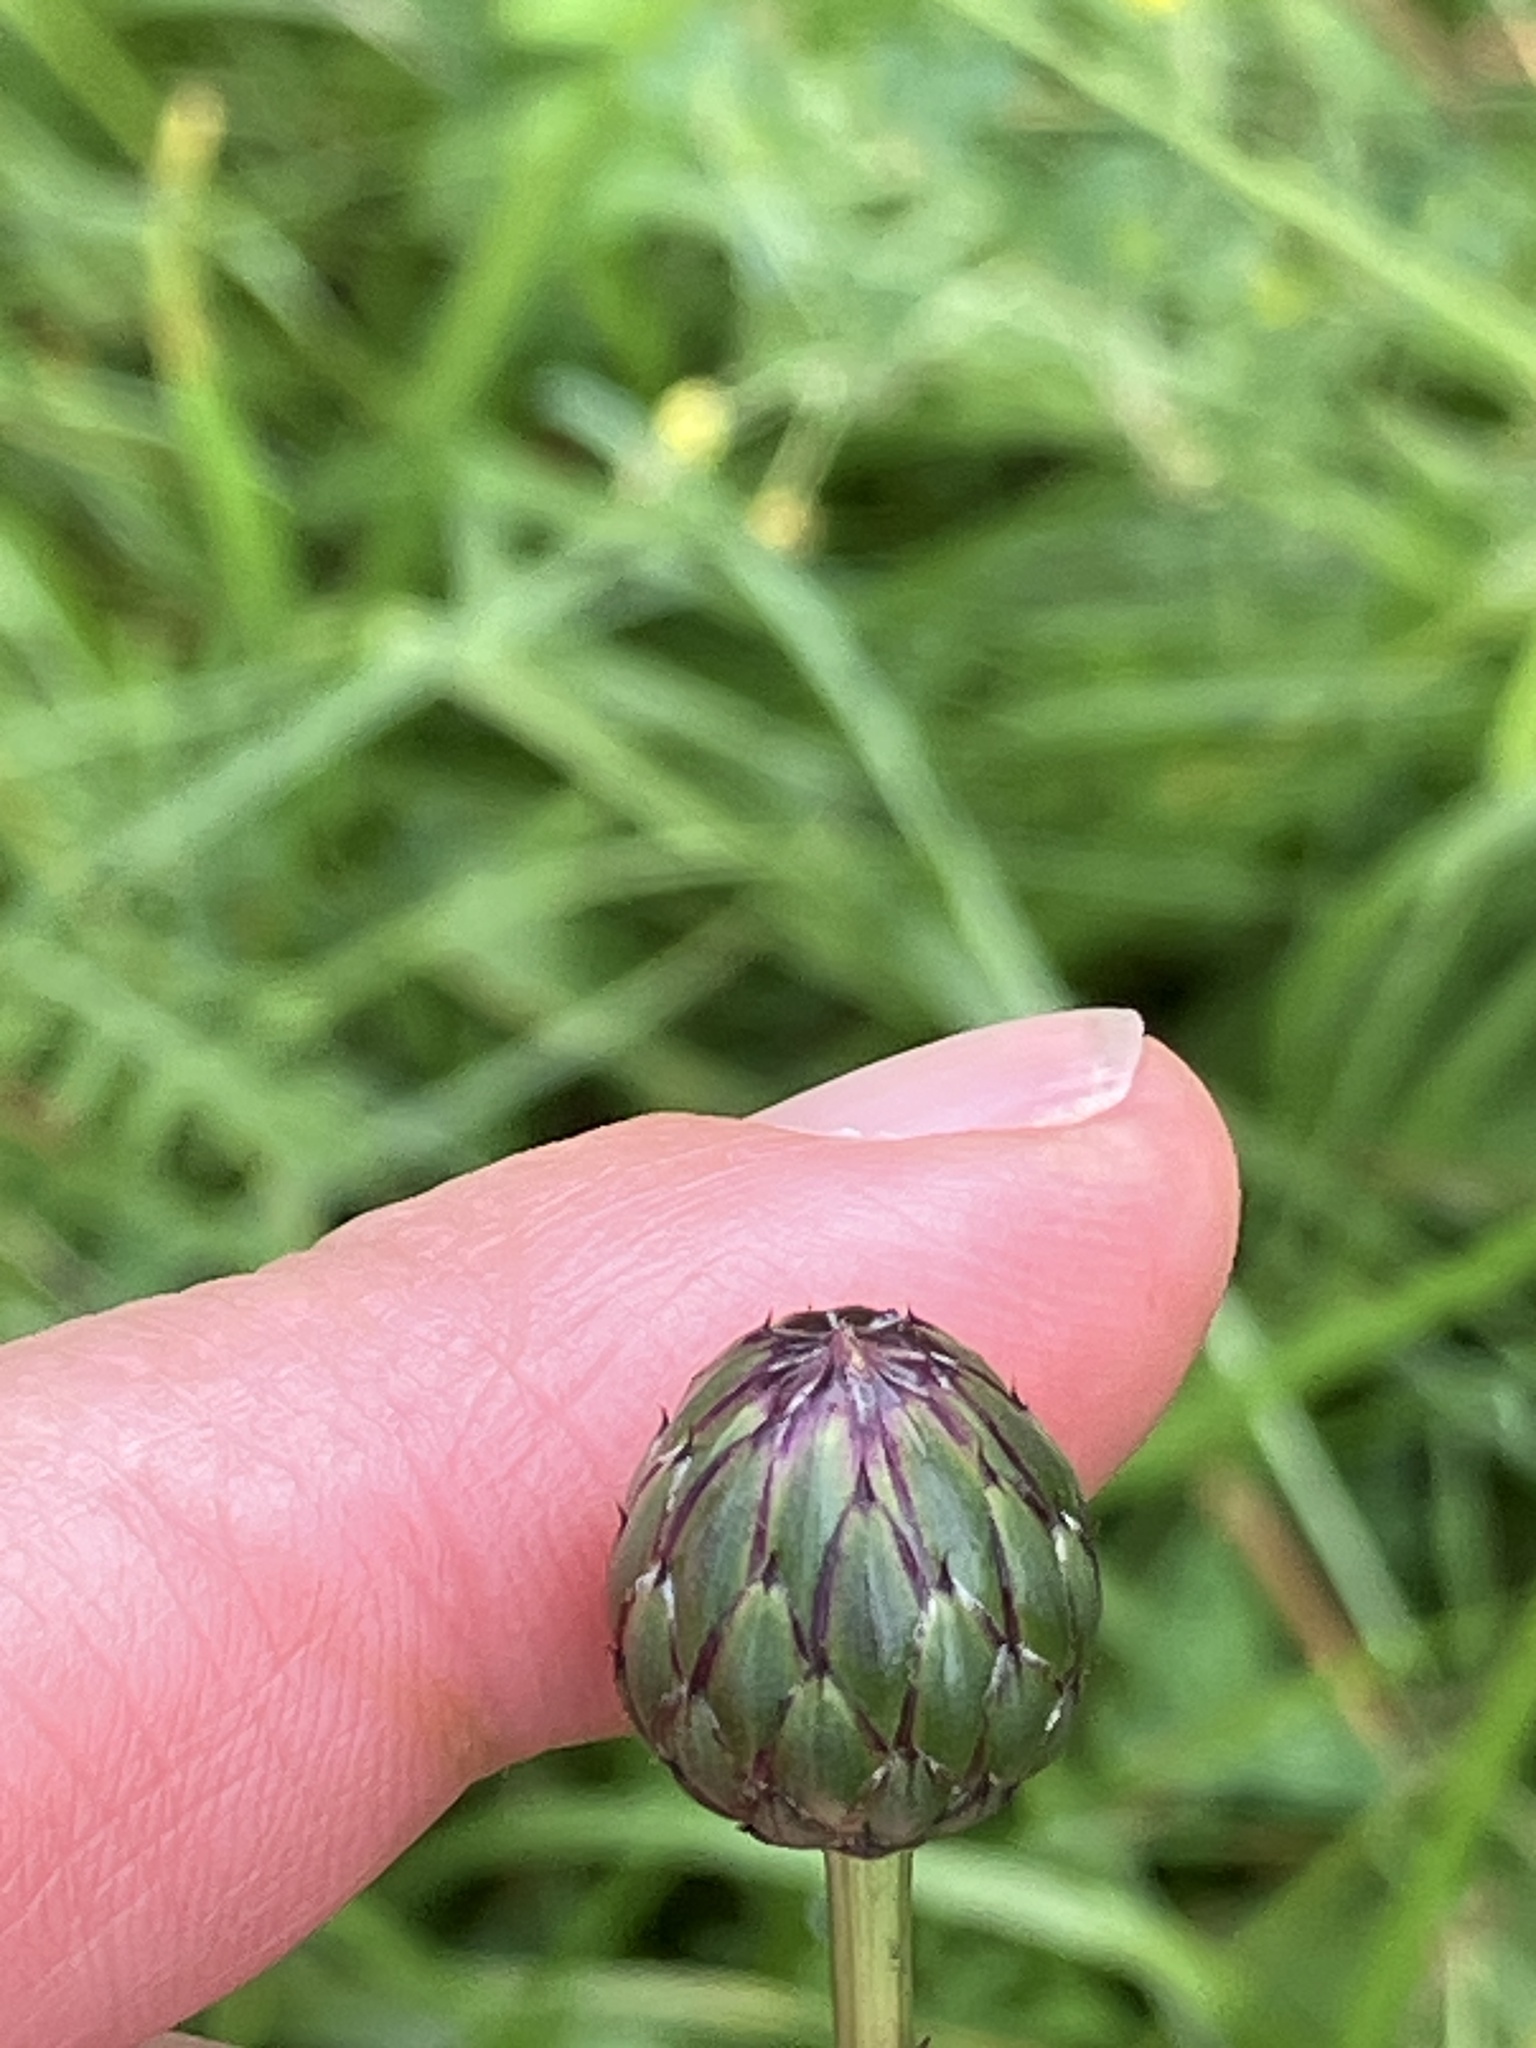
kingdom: Plantae
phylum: Tracheophyta
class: Magnoliopsida
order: Asterales
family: Asteraceae
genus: Klasea
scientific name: Klasea lycopifolia
